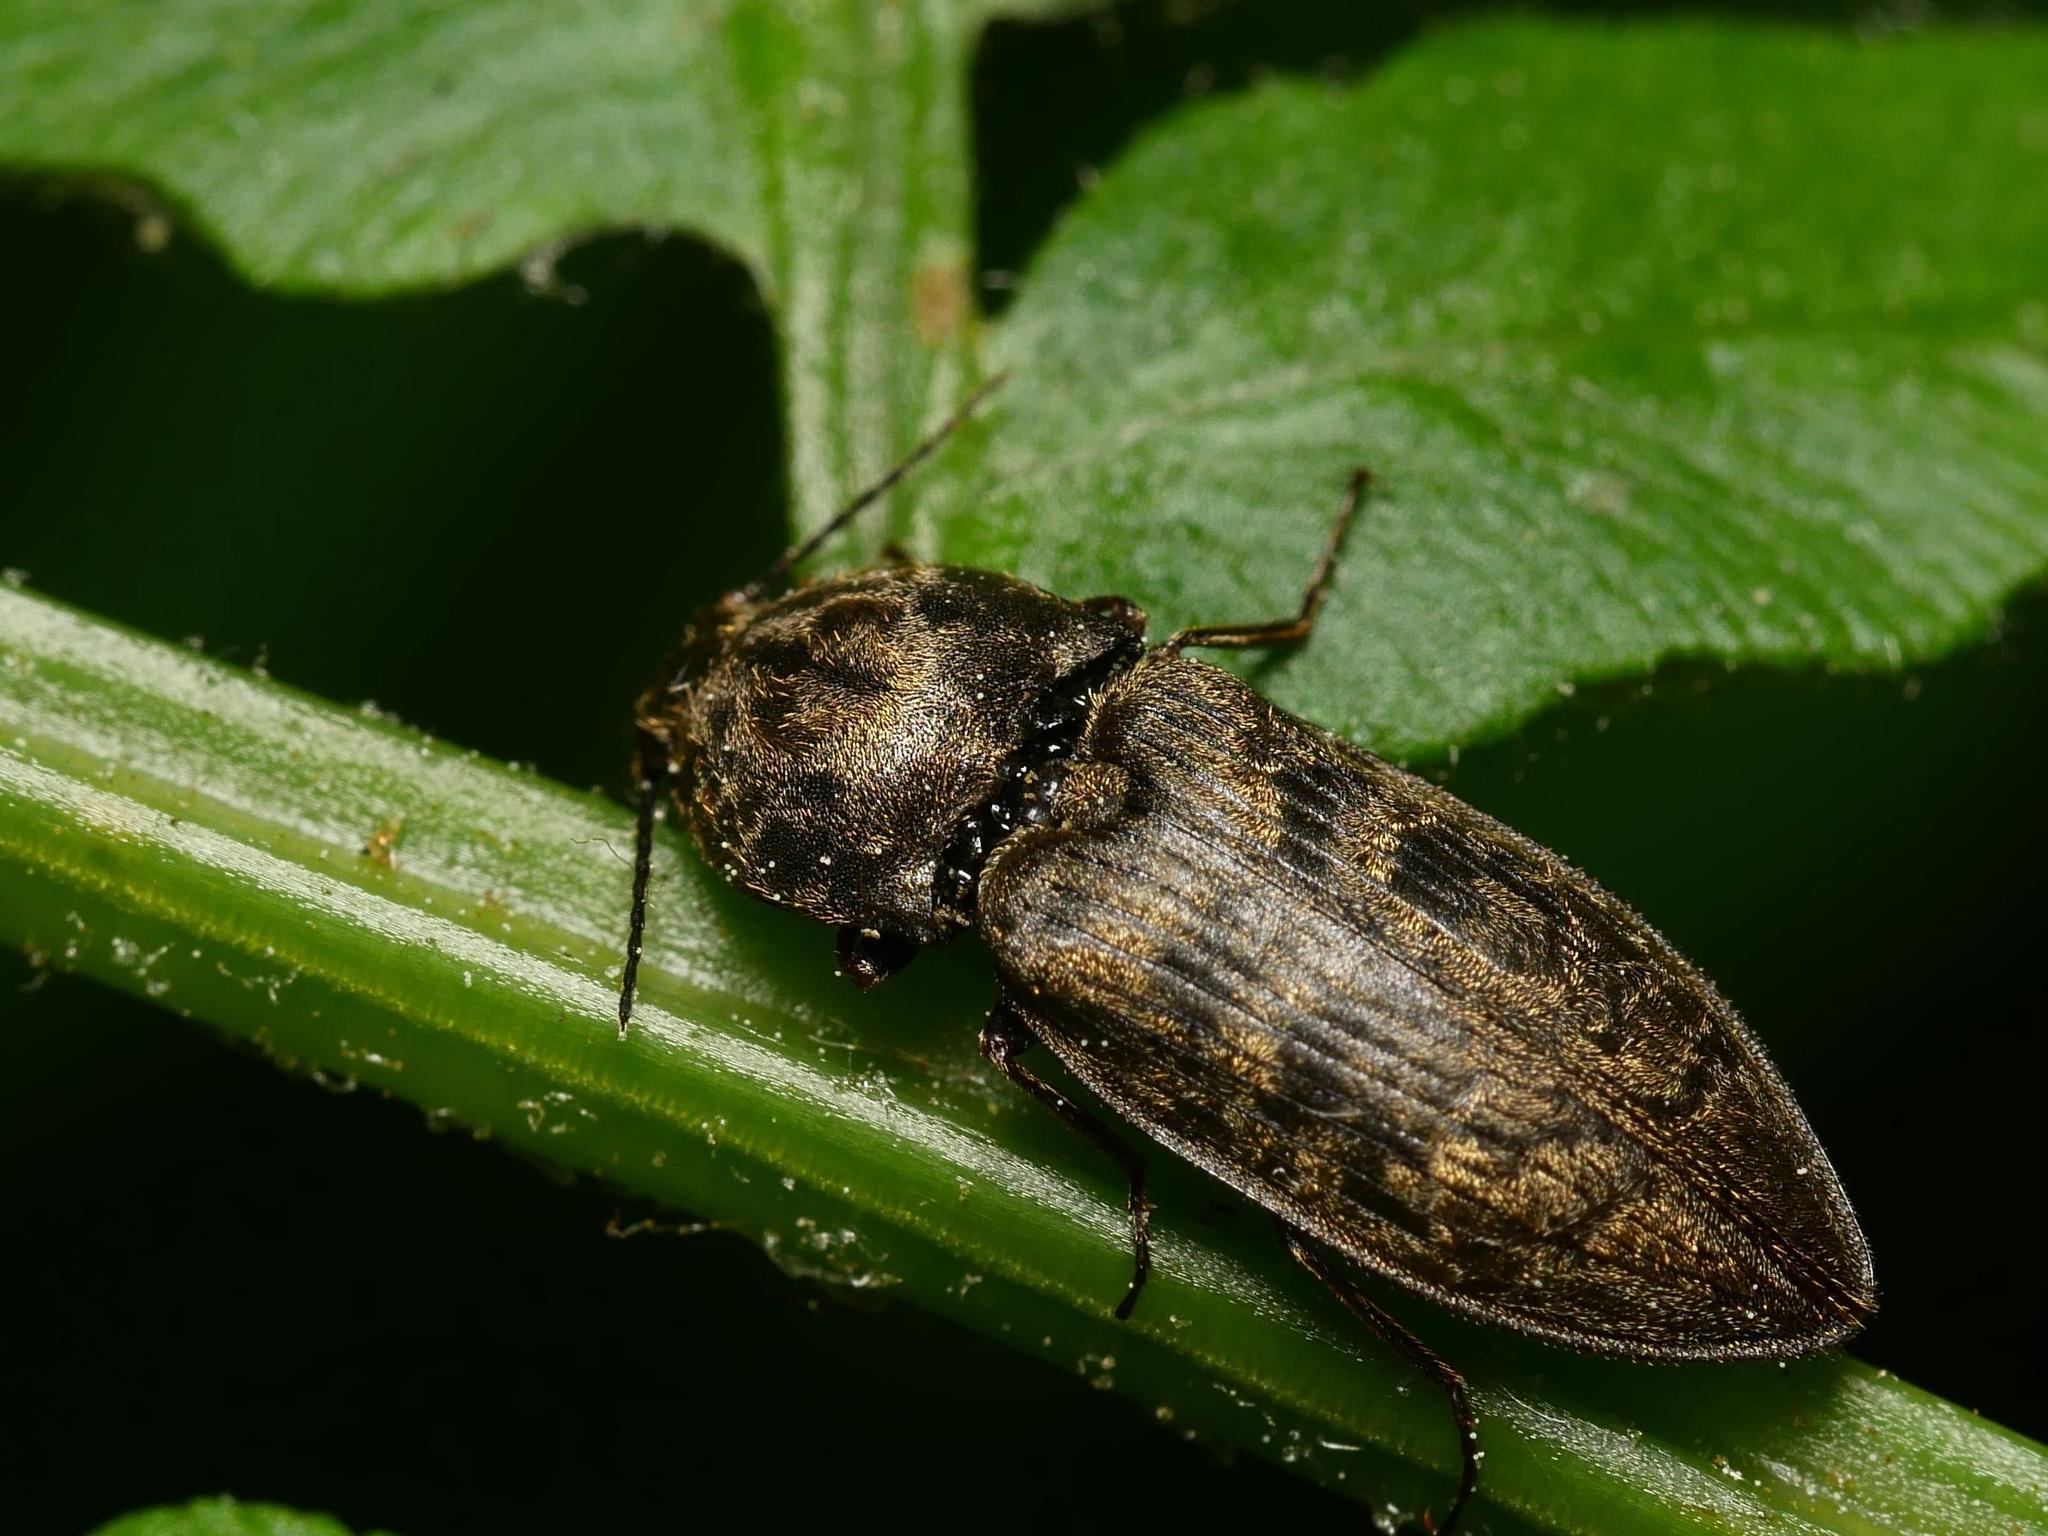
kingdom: Animalia
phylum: Arthropoda
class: Insecta
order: Coleoptera
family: Elateridae
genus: Prosternon
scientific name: Prosternon tessellatum
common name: Chequered click beetle
